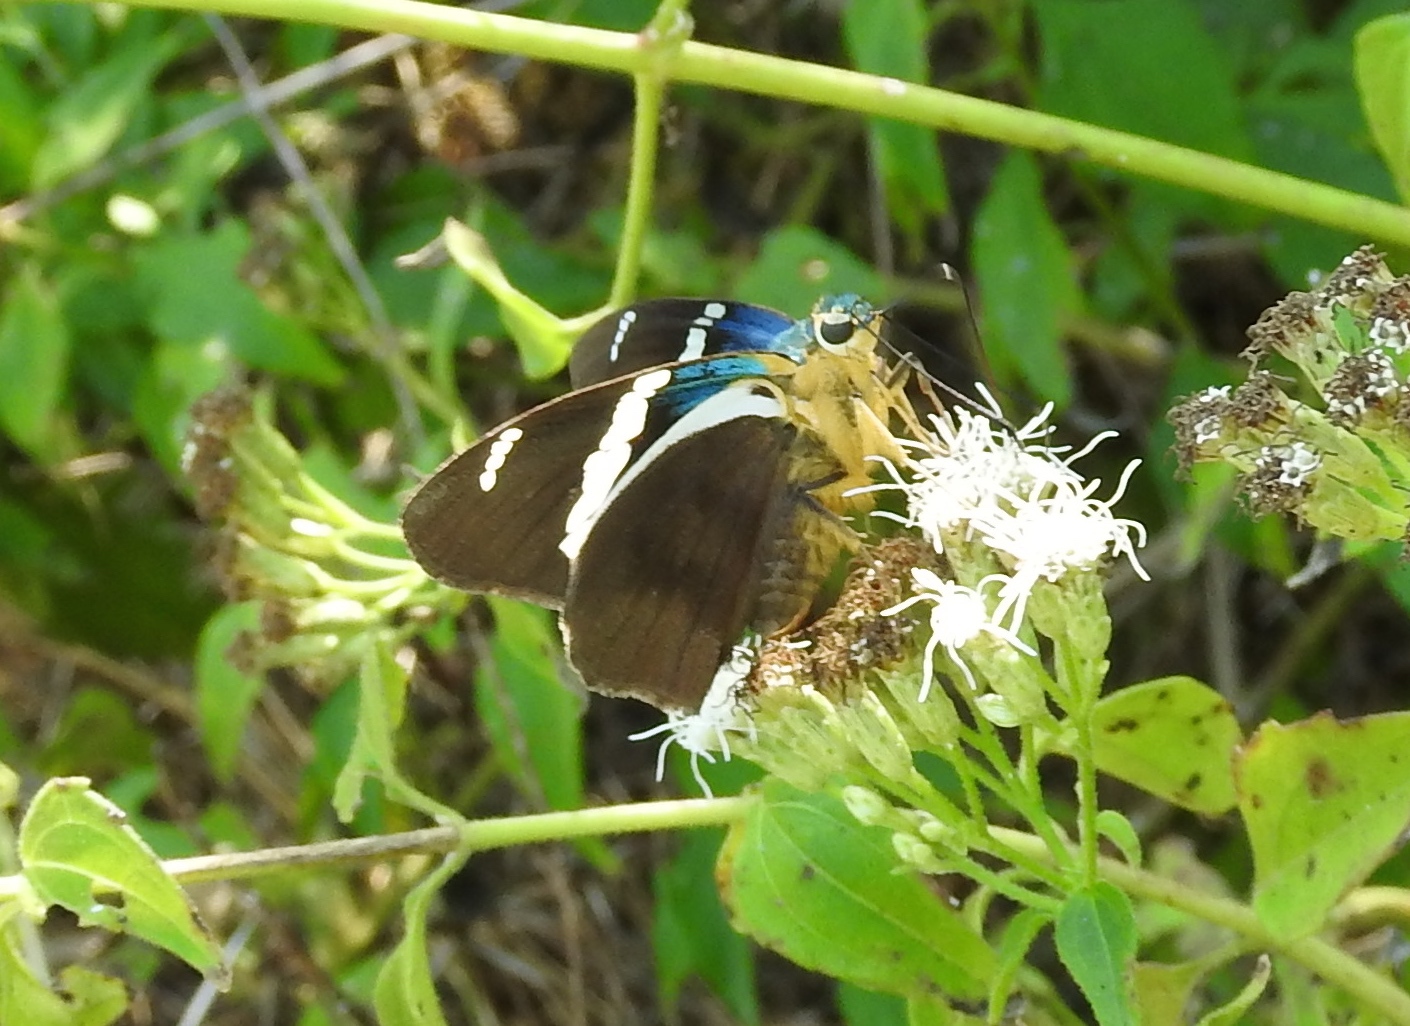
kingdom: Animalia
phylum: Arthropoda
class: Insecta
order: Lepidoptera
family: Hesperiidae
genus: Astraptes
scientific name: Astraptes fulgerator
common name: Two-barred flasher
